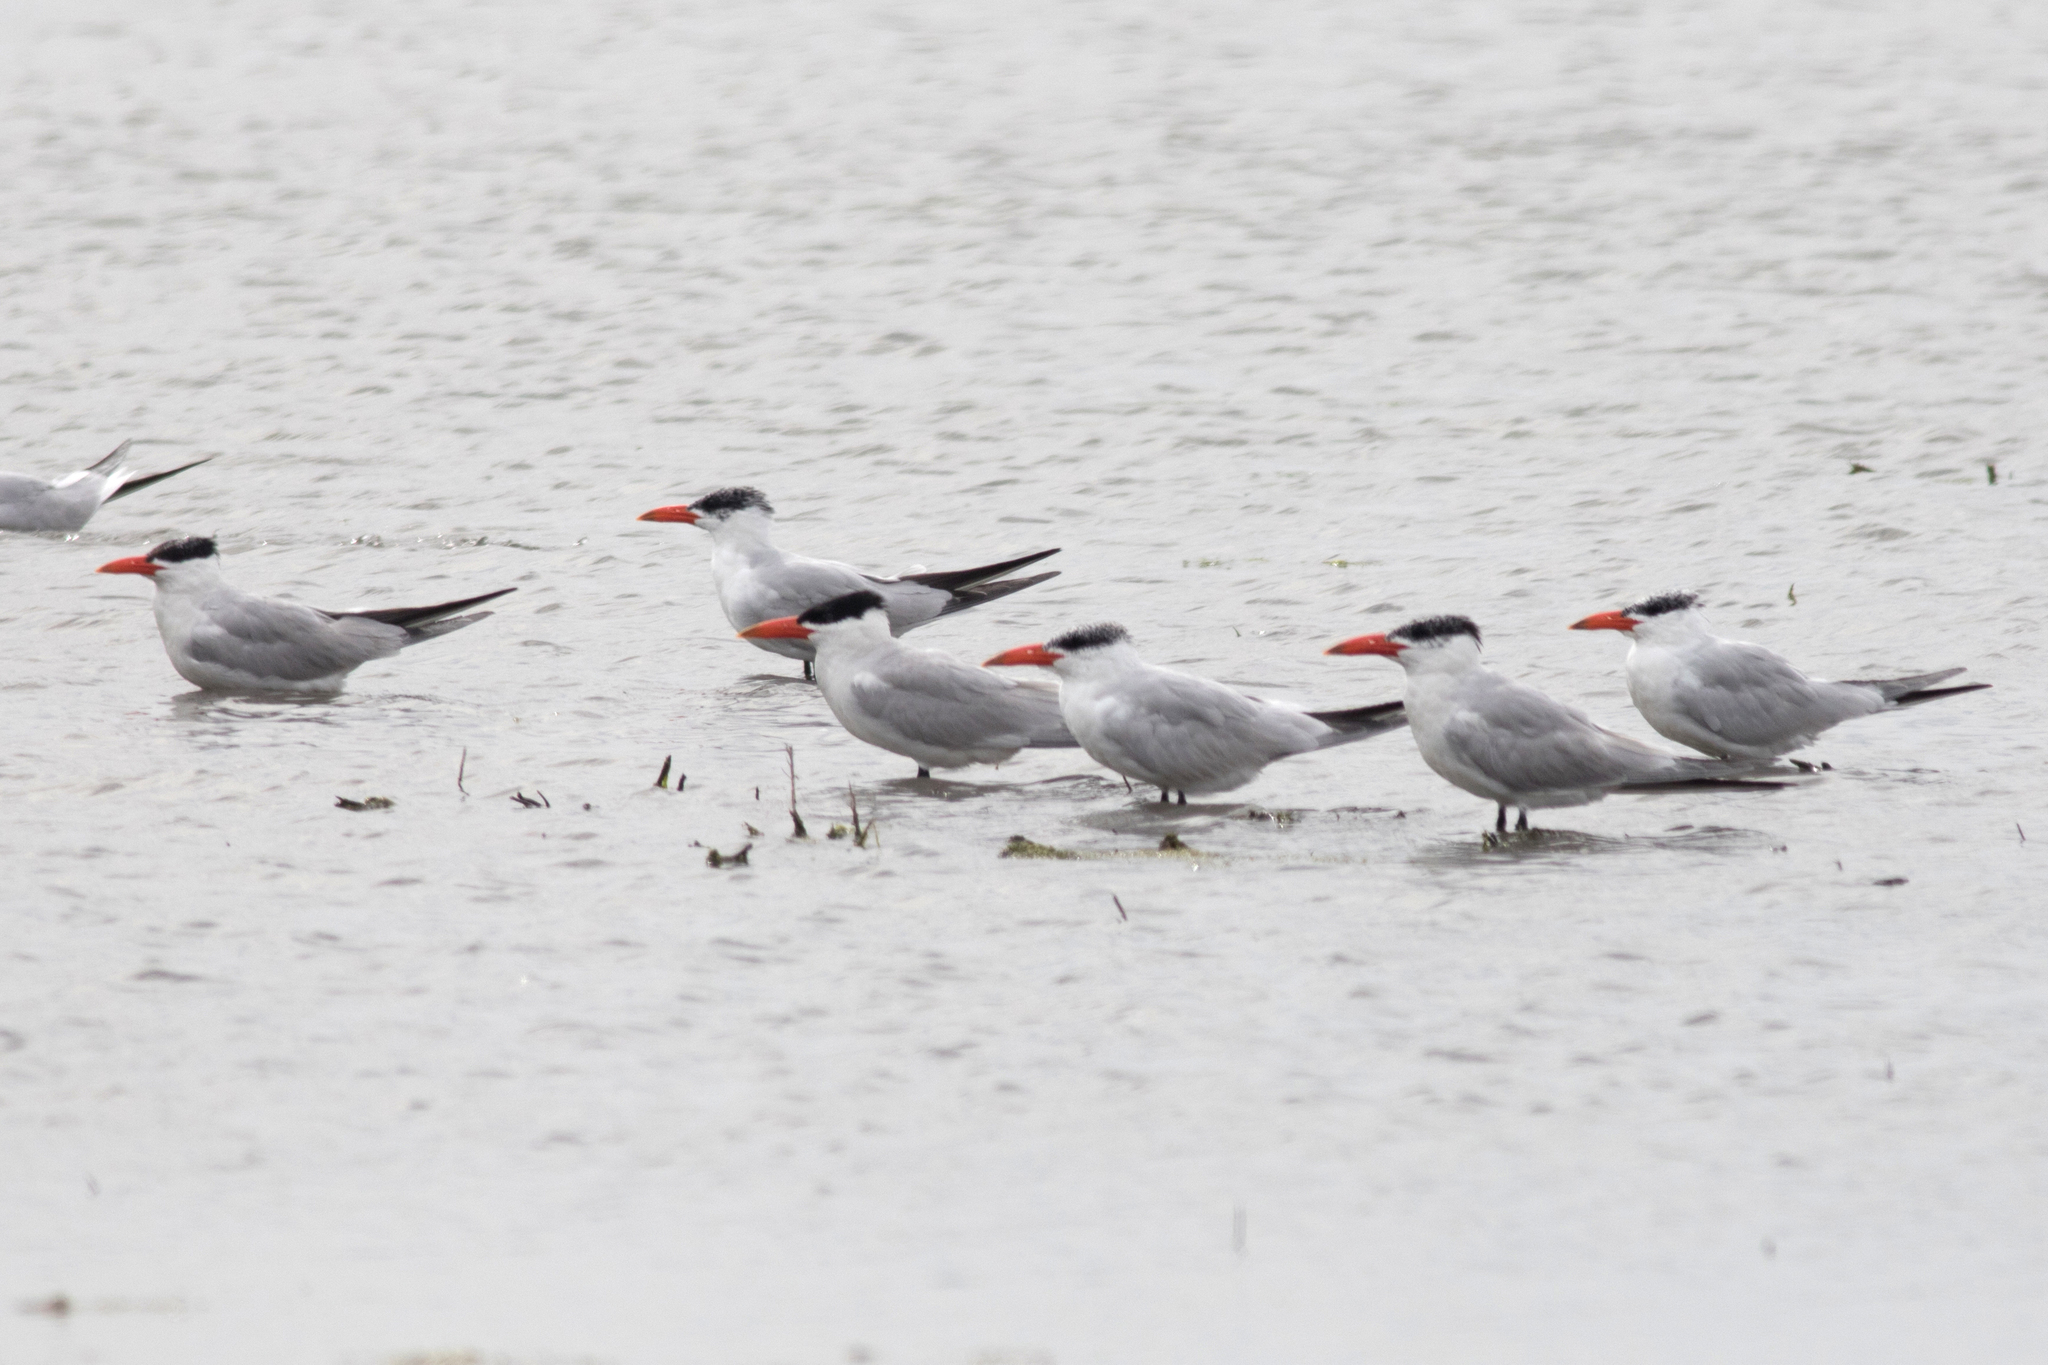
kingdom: Animalia
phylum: Chordata
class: Aves
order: Charadriiformes
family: Laridae
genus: Hydroprogne
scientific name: Hydroprogne caspia
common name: Caspian tern
